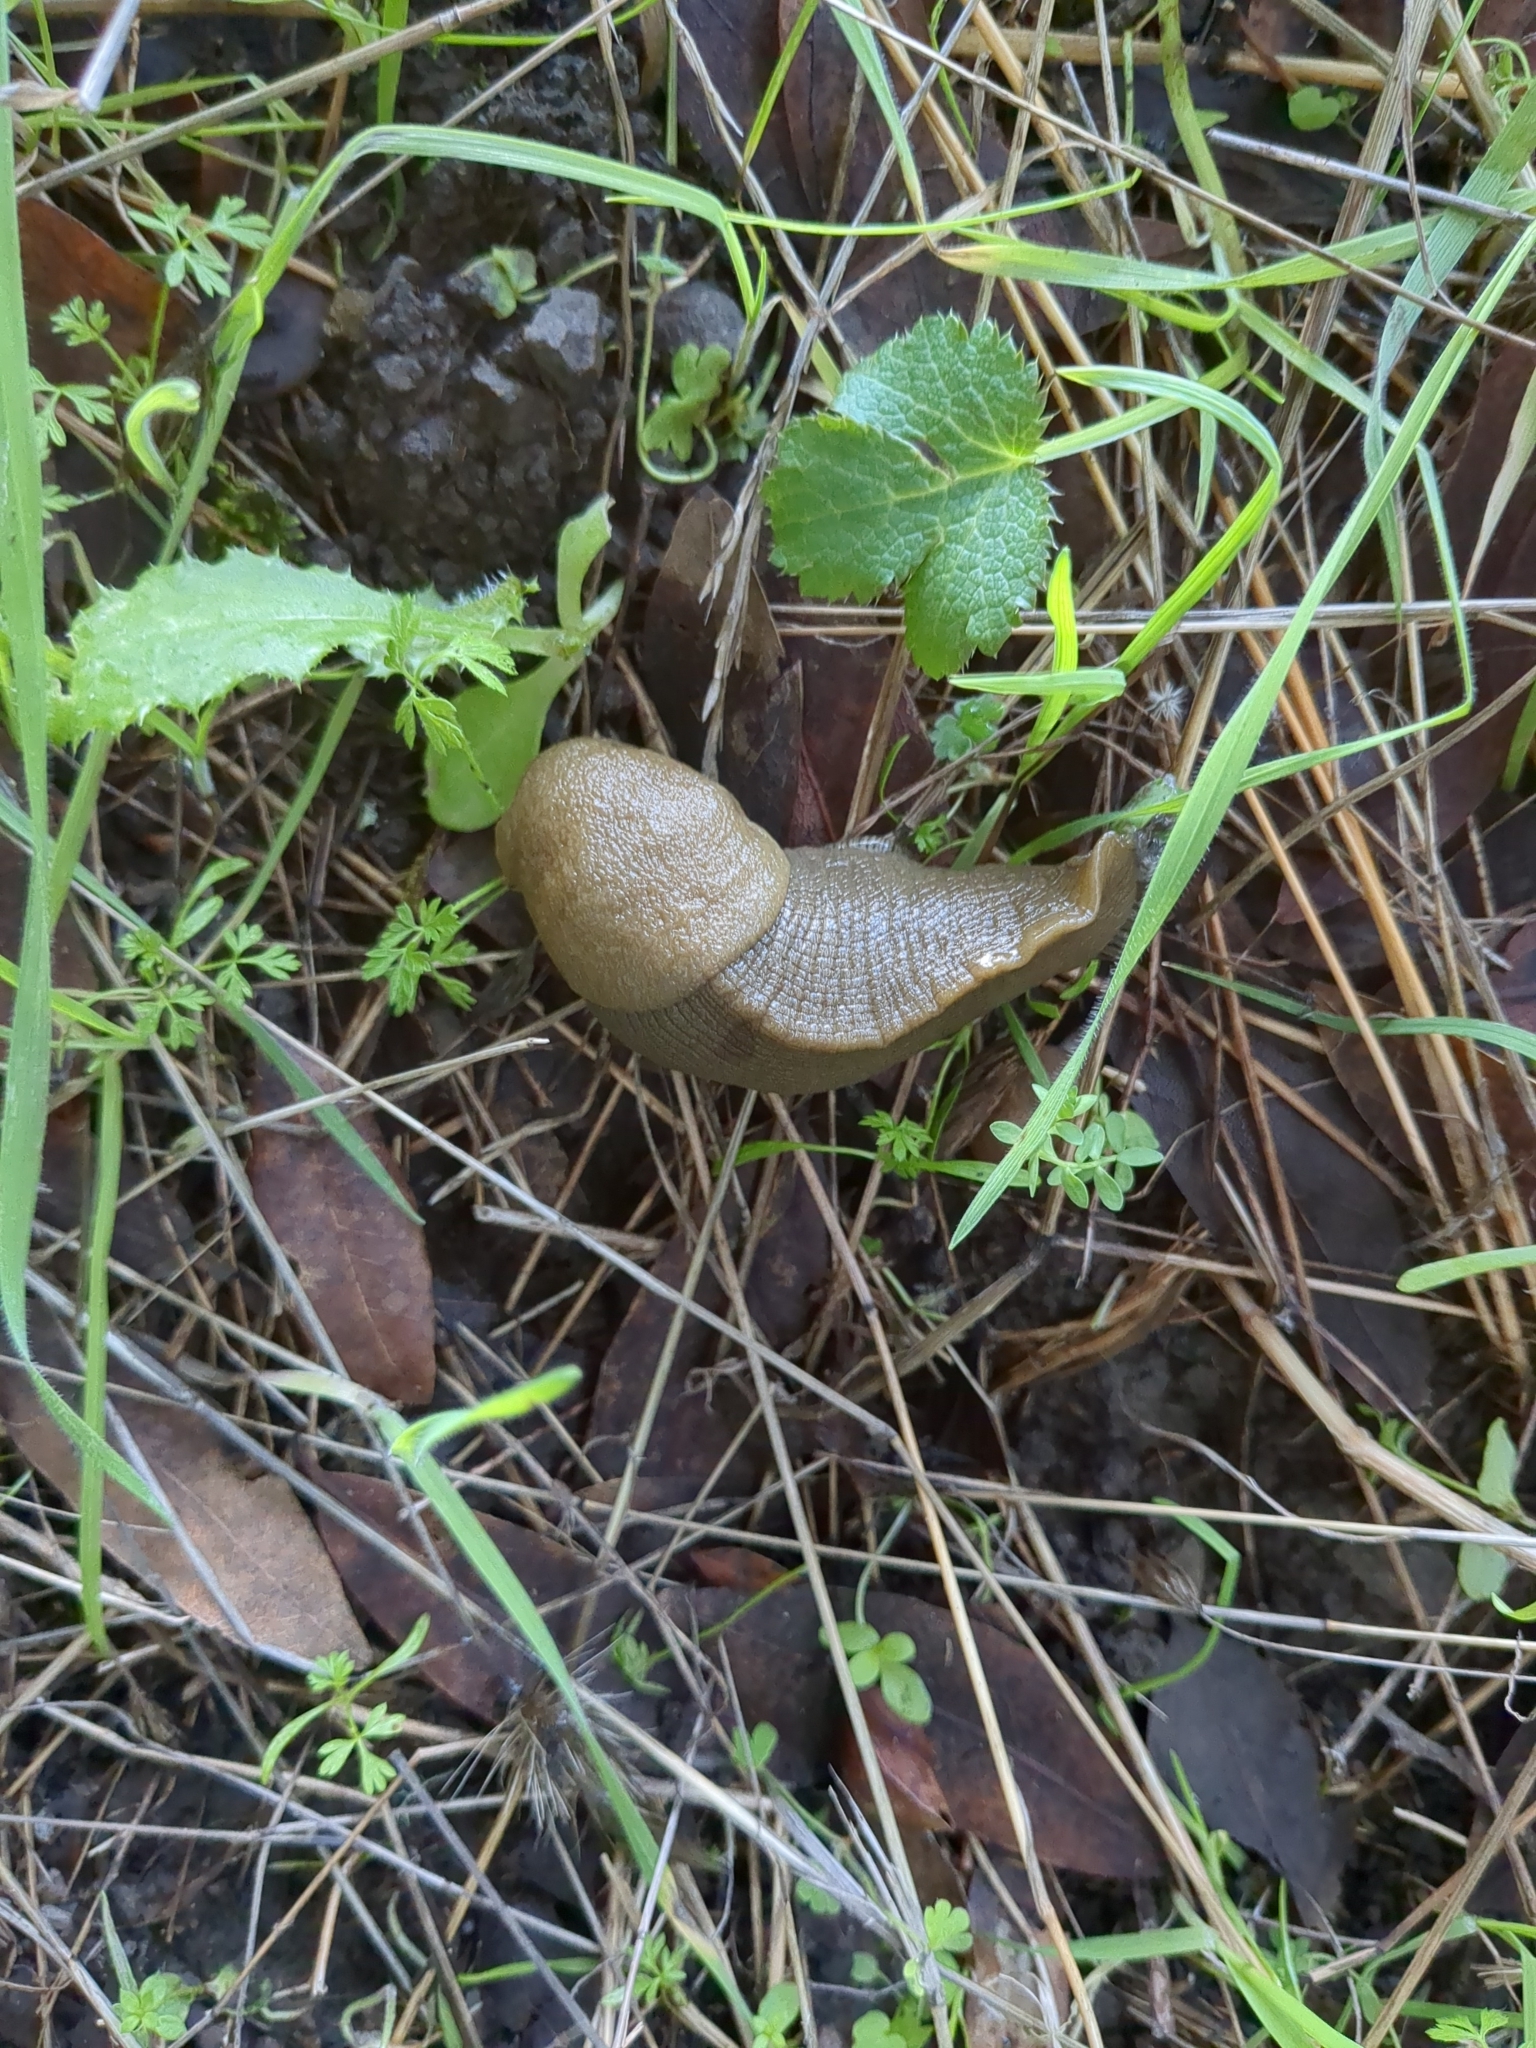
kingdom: Animalia
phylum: Mollusca
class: Gastropoda
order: Stylommatophora
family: Ariolimacidae
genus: Ariolimax
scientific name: Ariolimax buttoni
